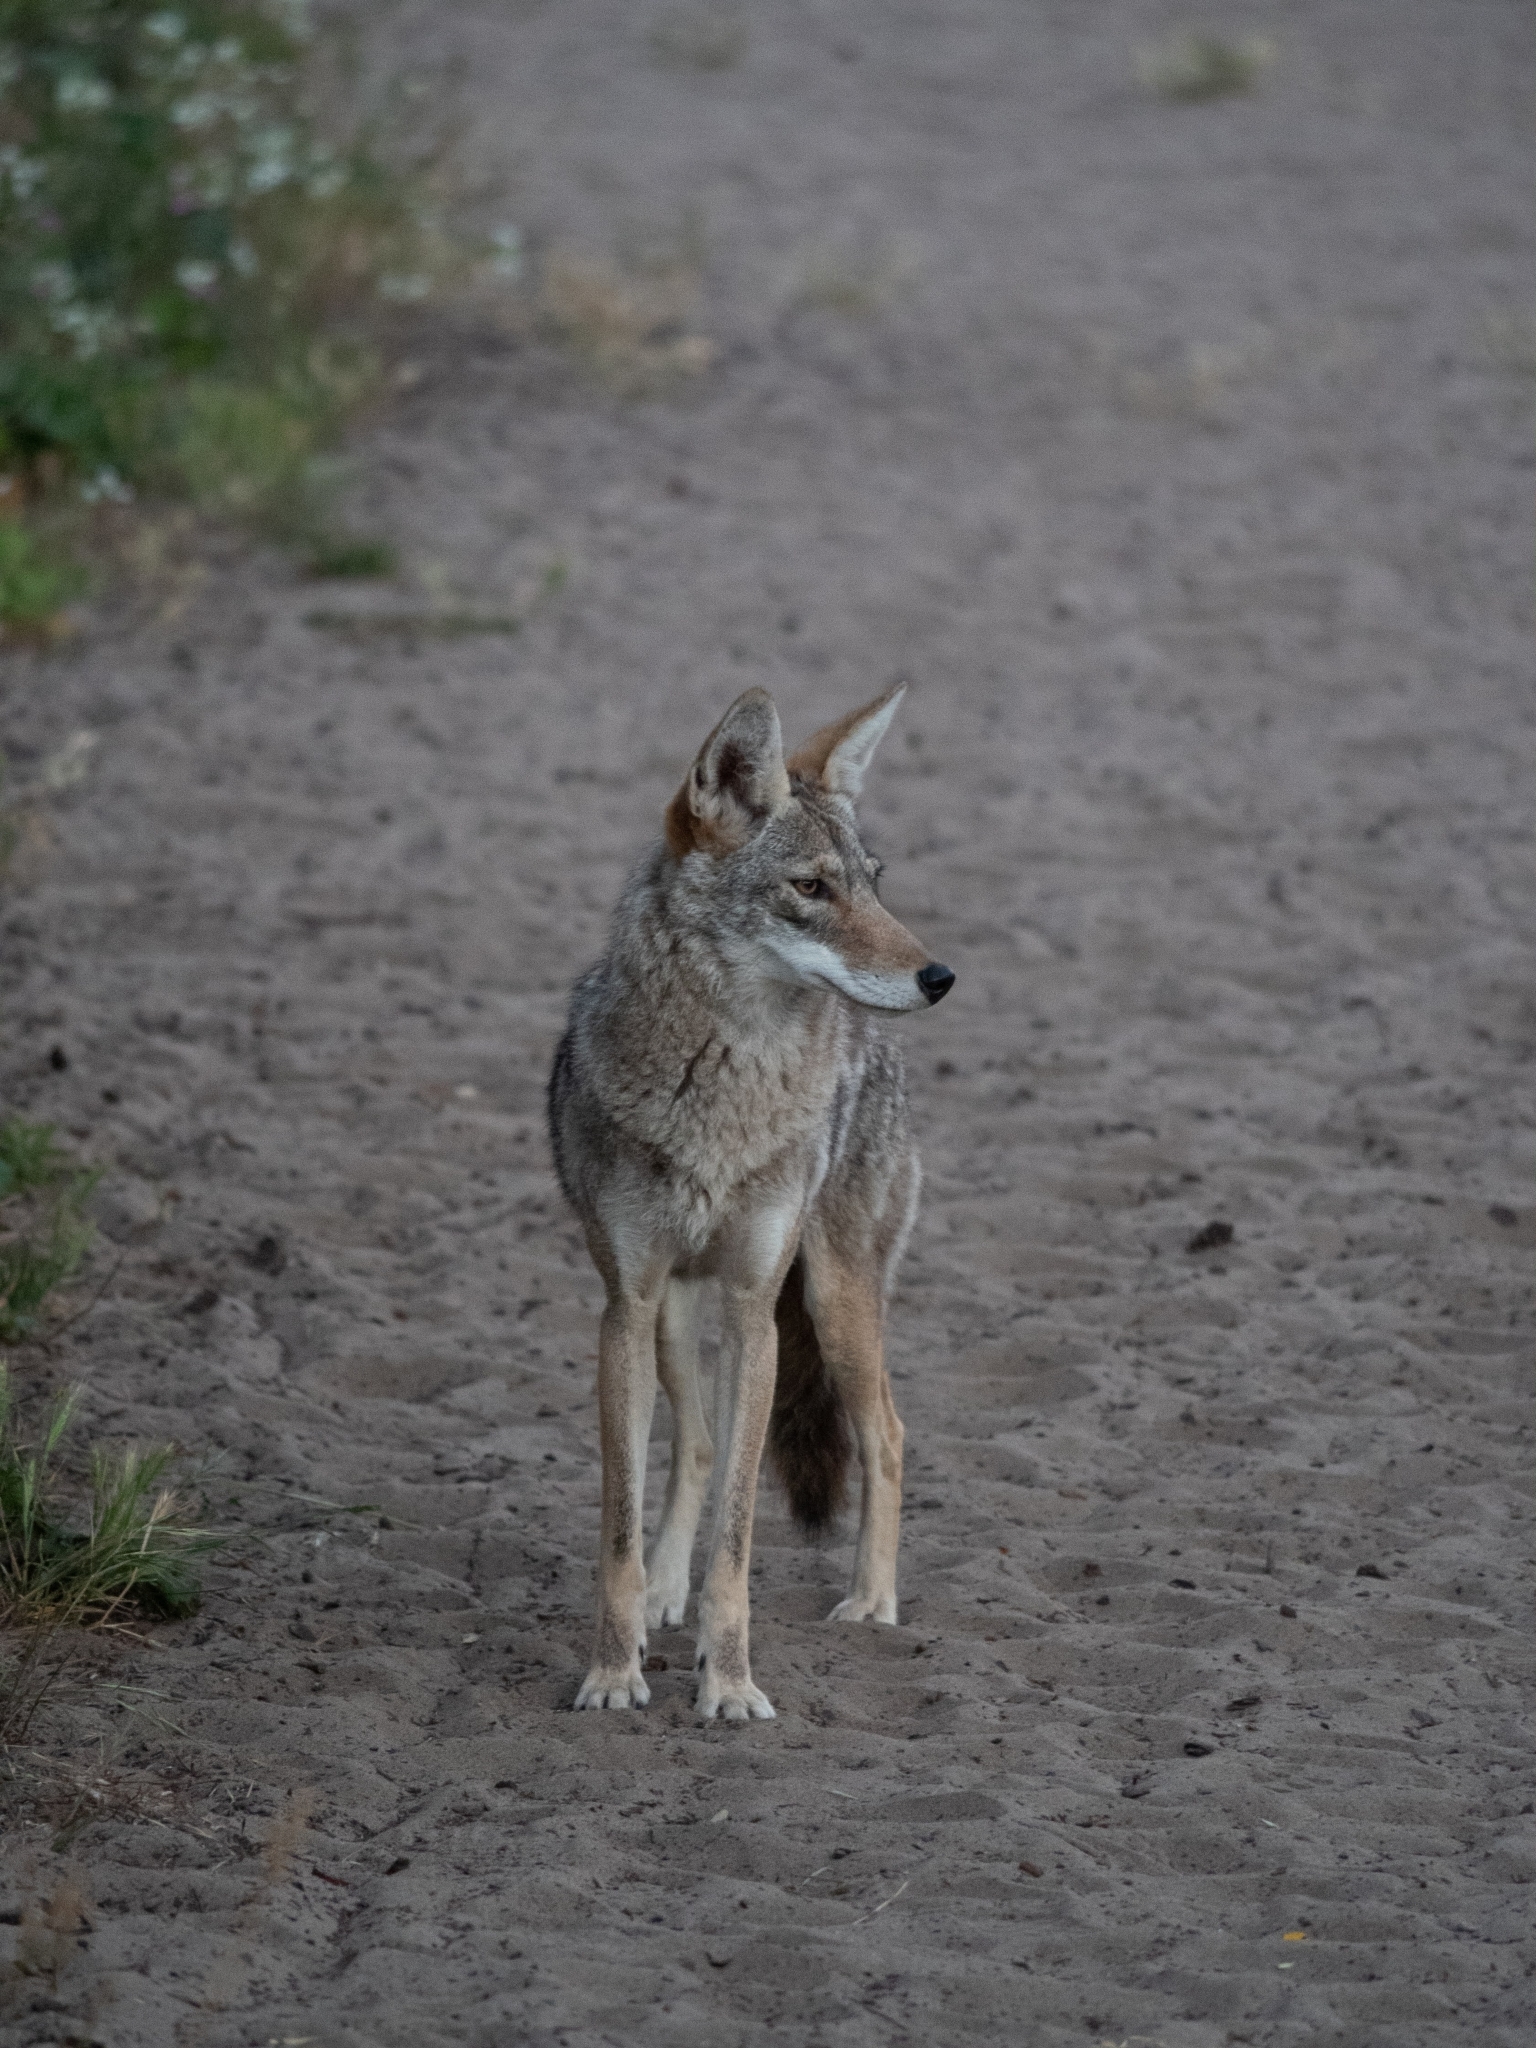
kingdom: Animalia
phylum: Chordata
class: Mammalia
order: Carnivora
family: Canidae
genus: Canis
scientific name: Canis latrans
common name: Coyote
